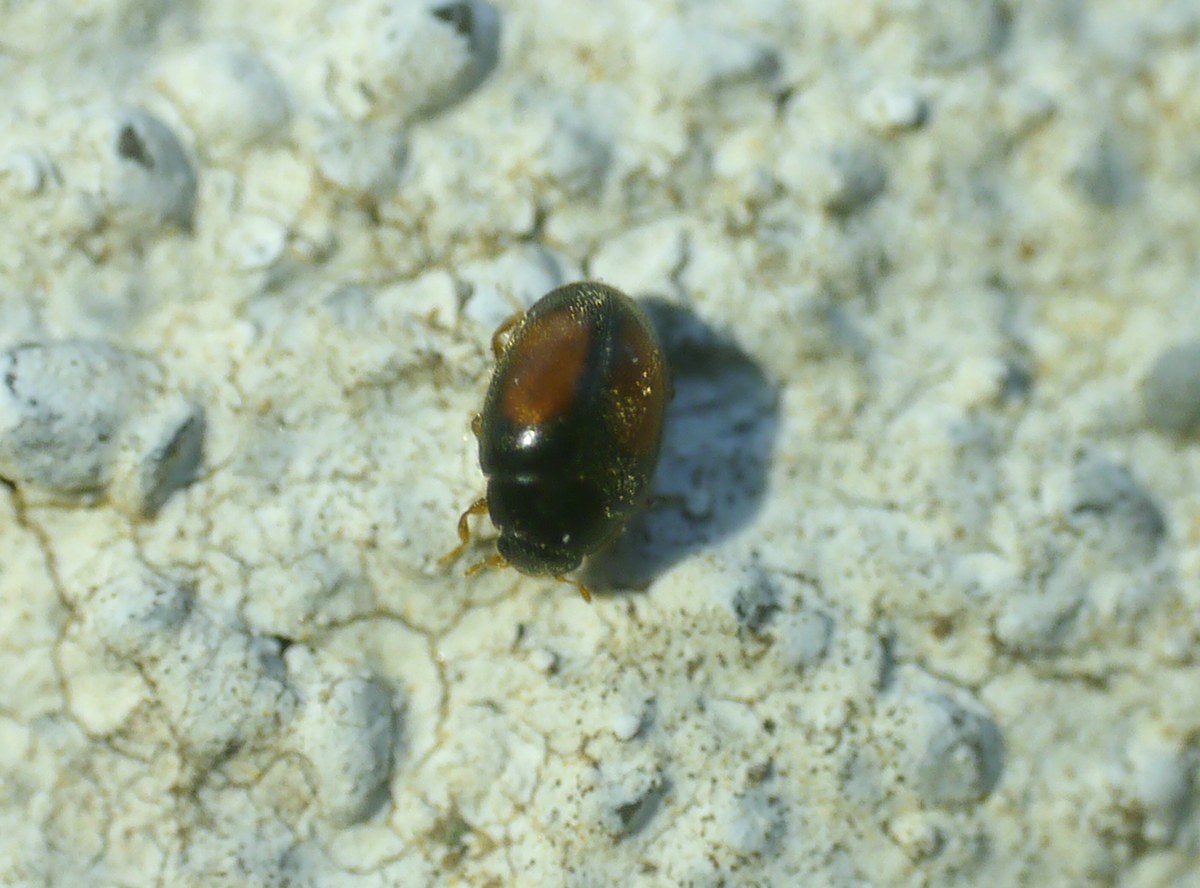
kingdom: Animalia
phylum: Arthropoda
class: Insecta
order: Coleoptera
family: Coccinellidae
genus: Nephus
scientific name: Nephus redtenbacheri
